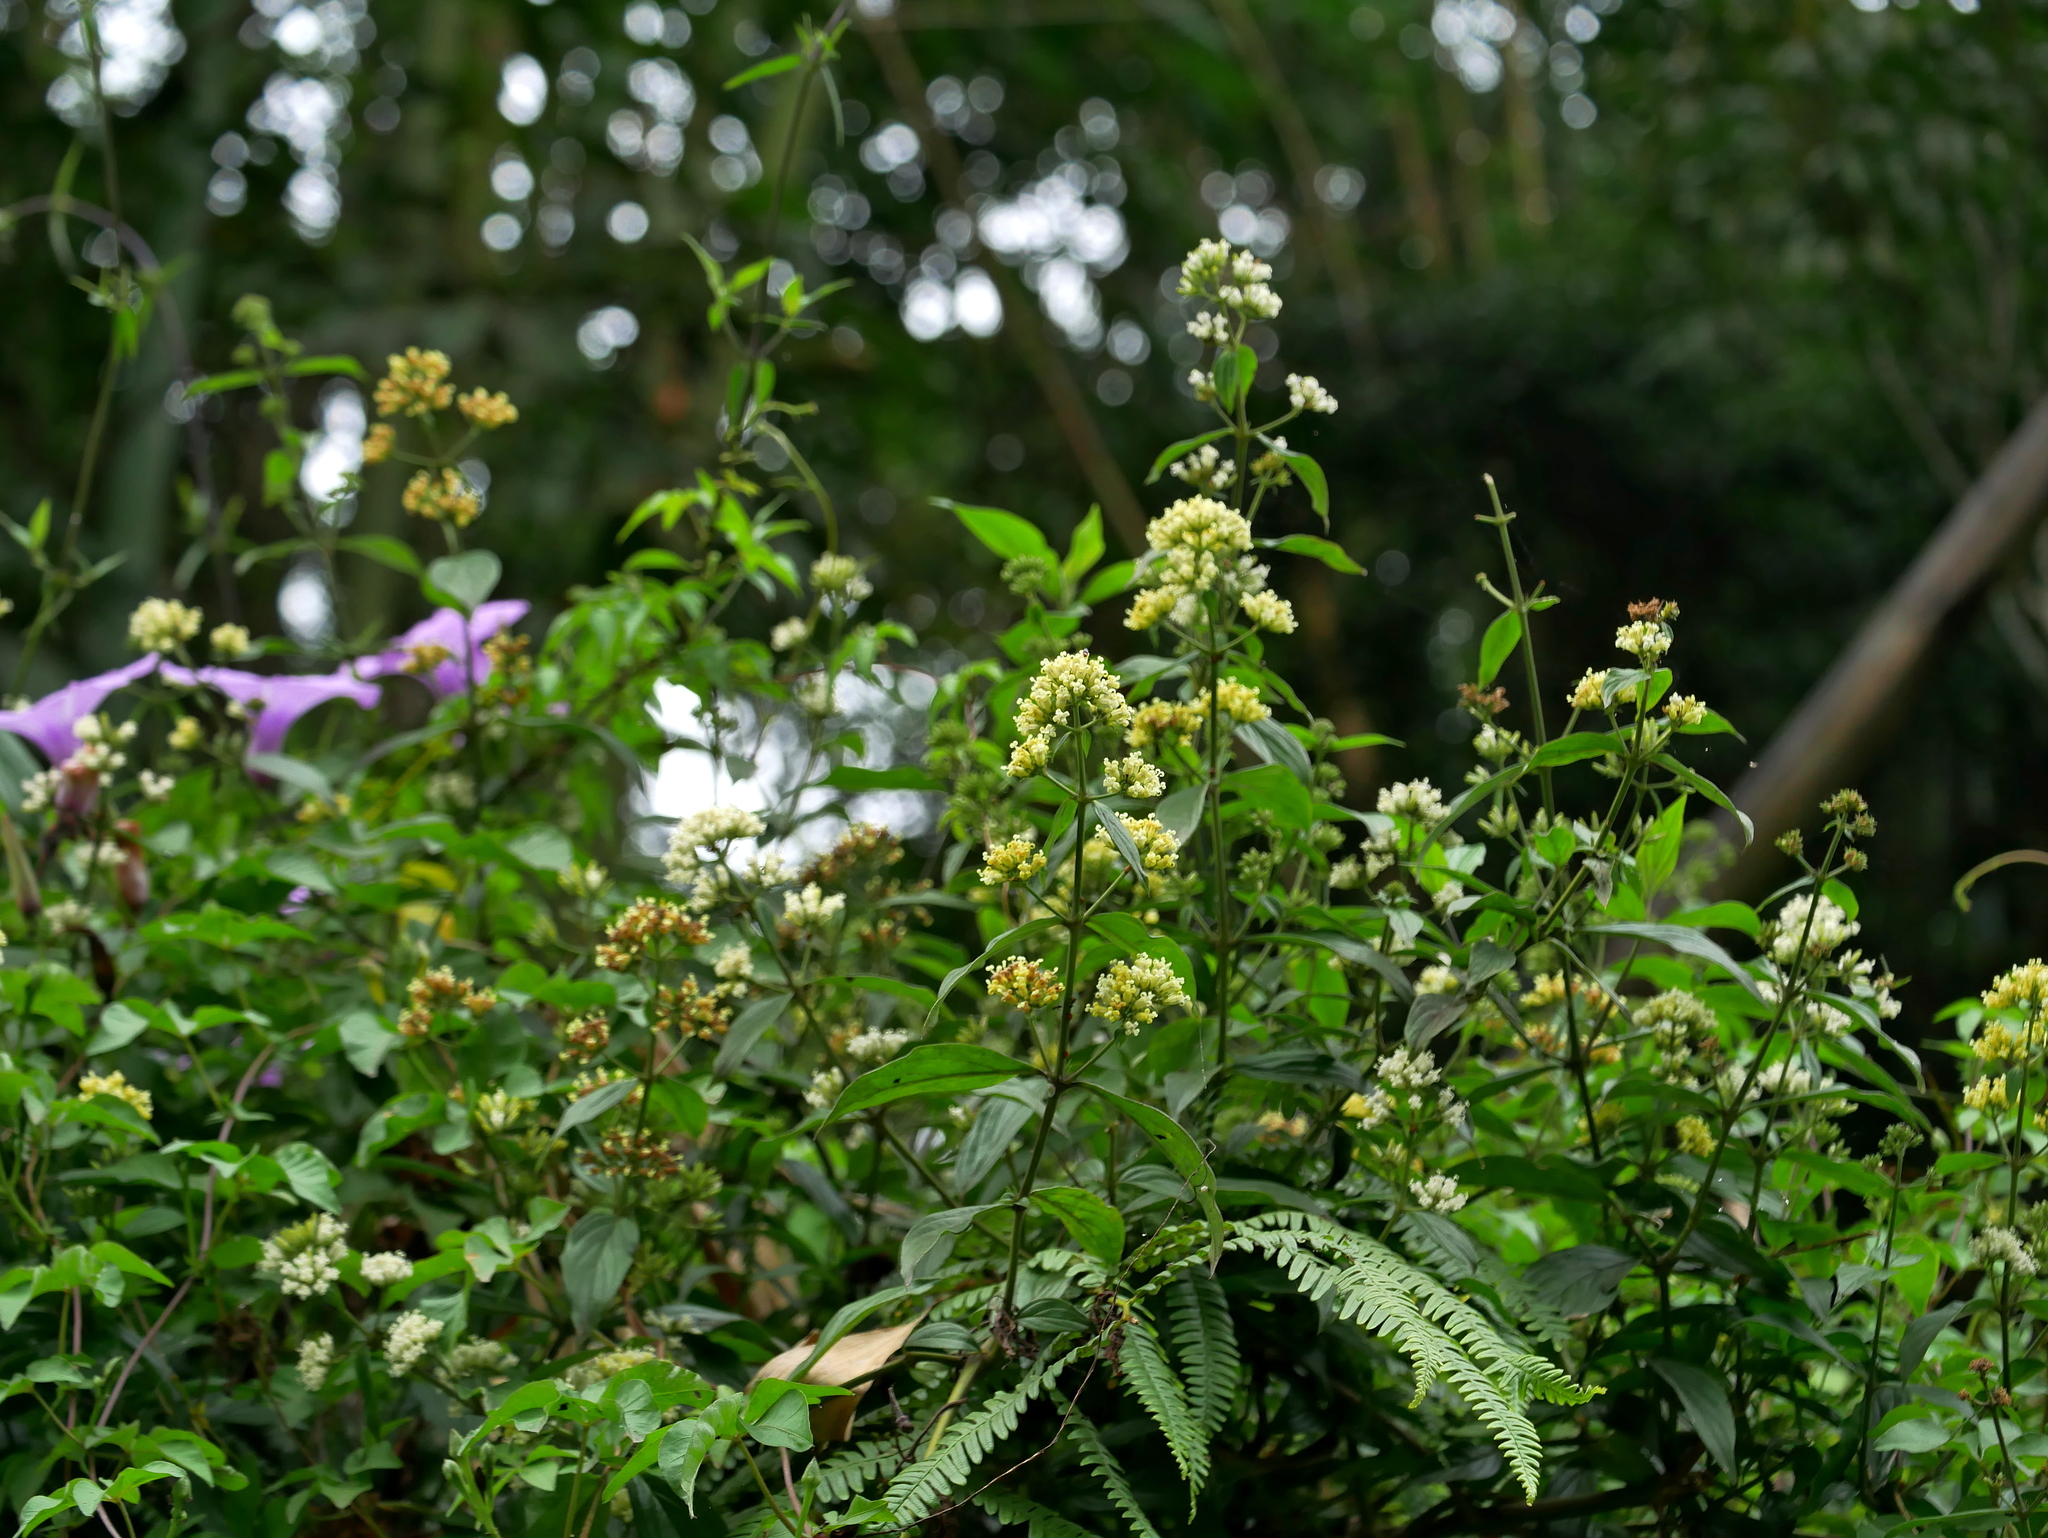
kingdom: Plantae
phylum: Tracheophyta
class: Magnoliopsida
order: Gentianales
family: Rubiaceae
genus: Dimetia
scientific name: Dimetia hedyotidea
